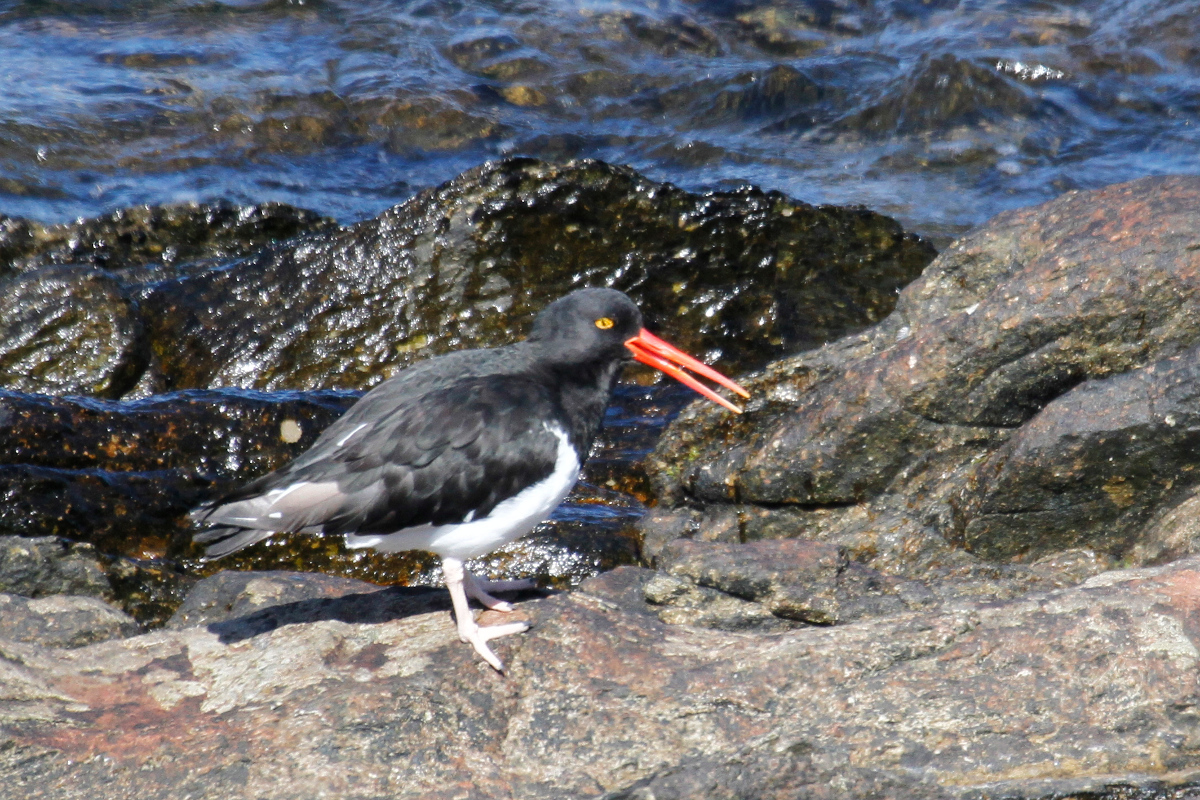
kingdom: Animalia
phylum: Chordata
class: Aves
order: Charadriiformes
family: Haematopodidae
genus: Haematopus
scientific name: Haematopus leucopodus
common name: Magellanic oystercatcher
